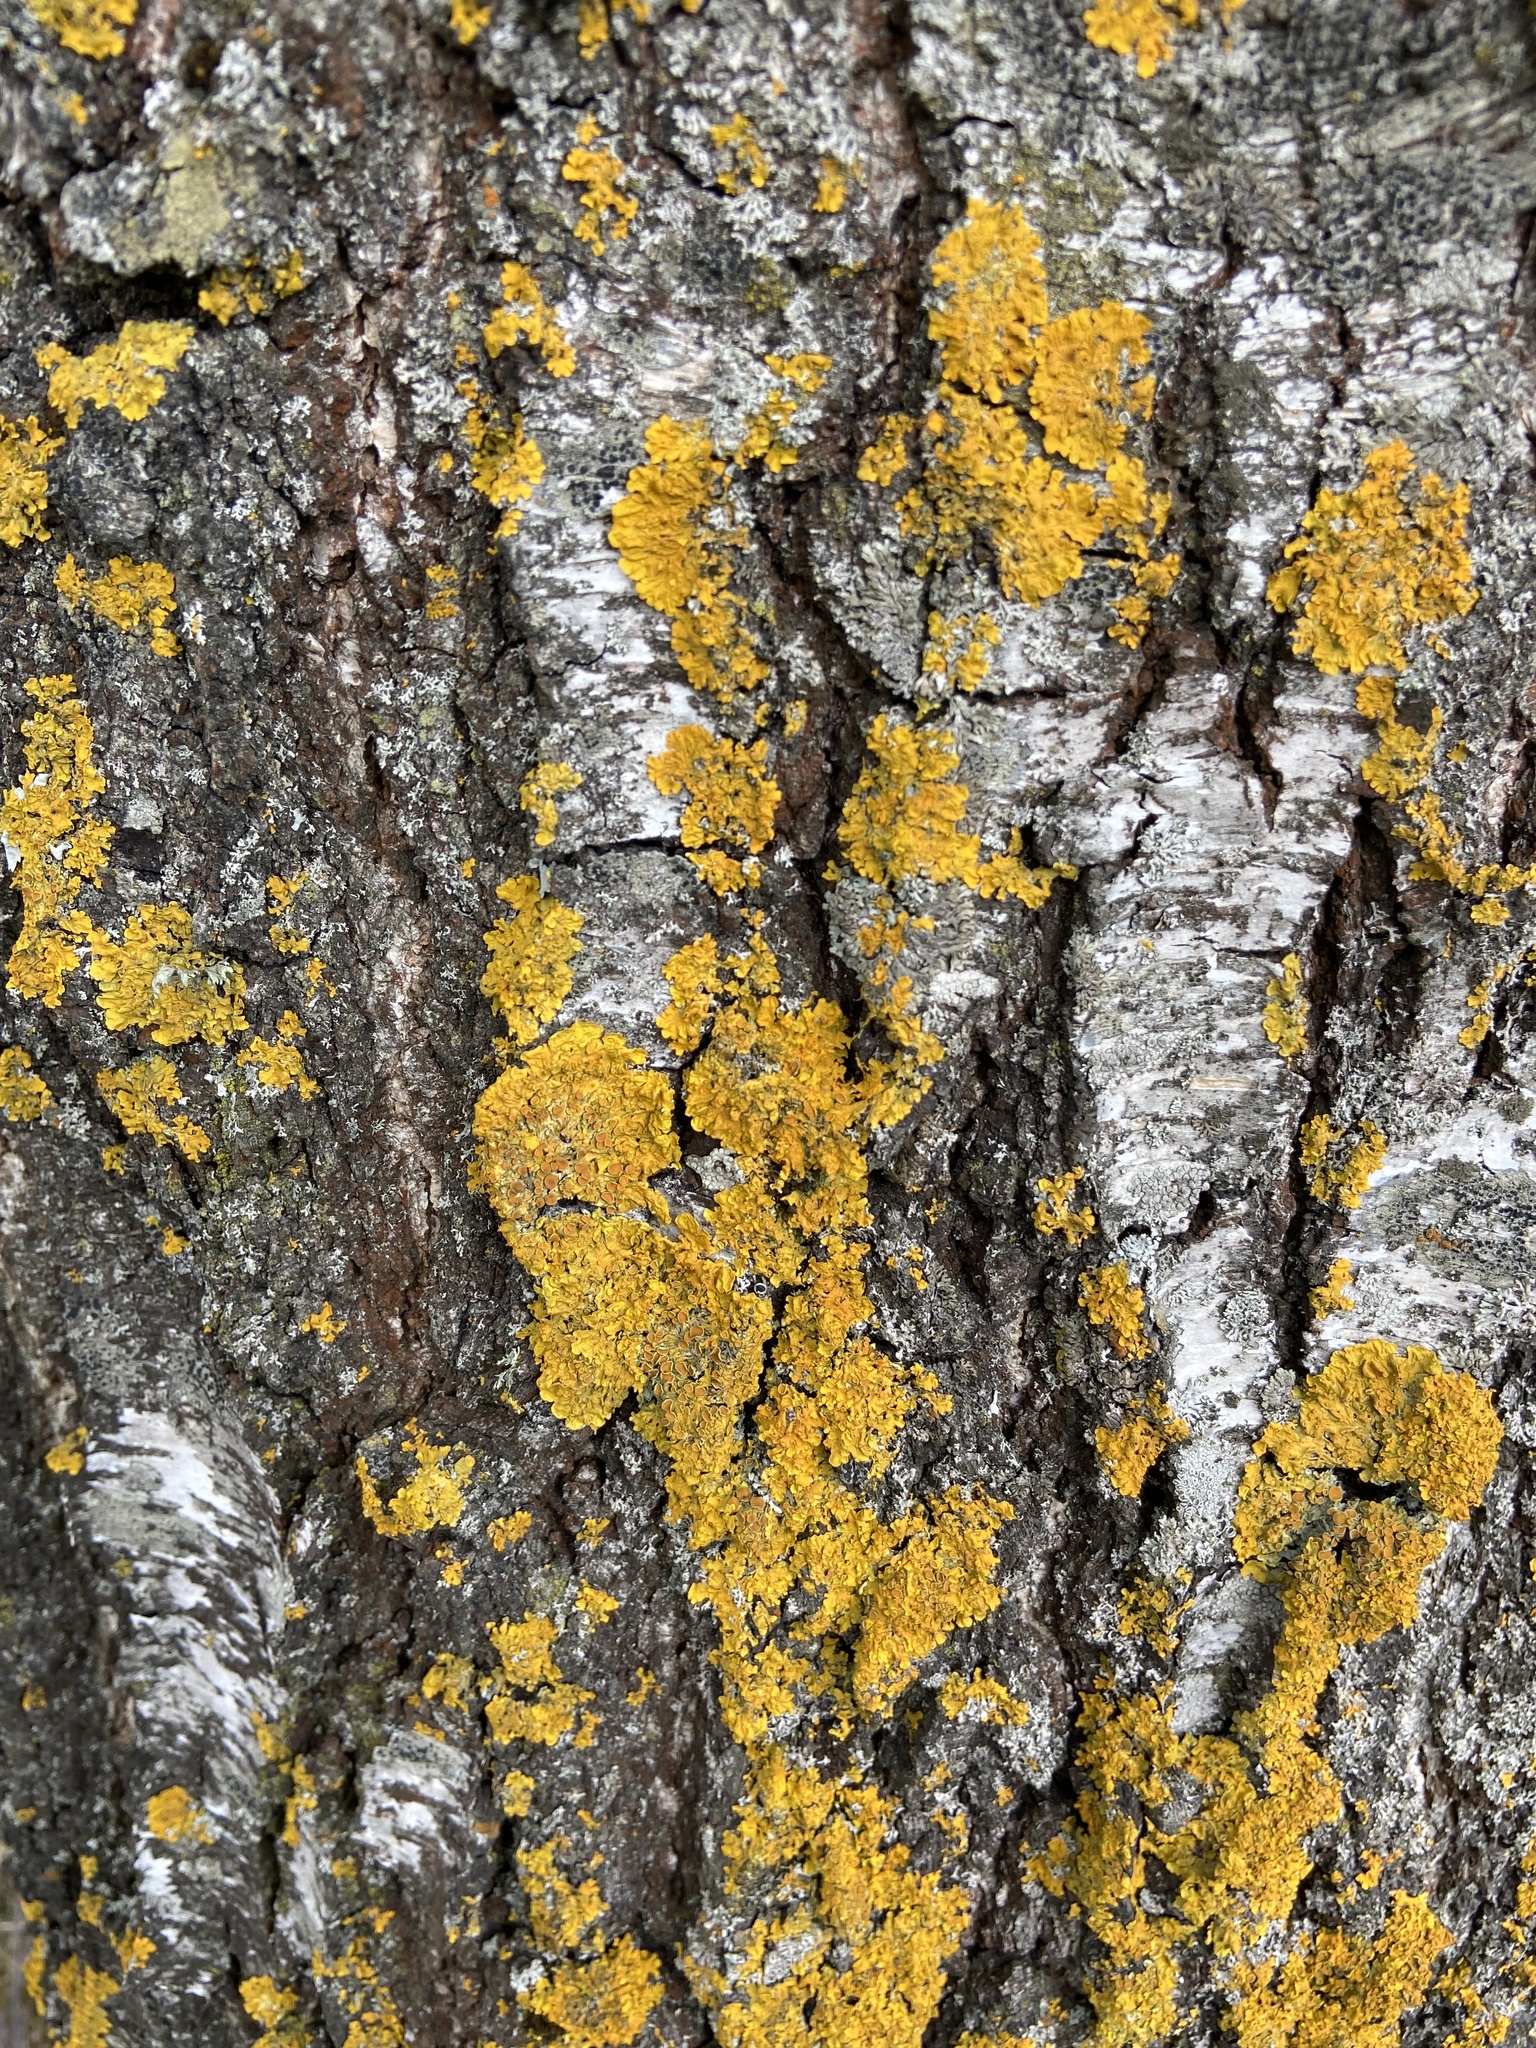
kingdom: Fungi
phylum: Ascomycota
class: Lecanoromycetes
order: Teloschistales
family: Teloschistaceae
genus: Xanthoria
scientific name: Xanthoria parietina
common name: Common orange lichen
